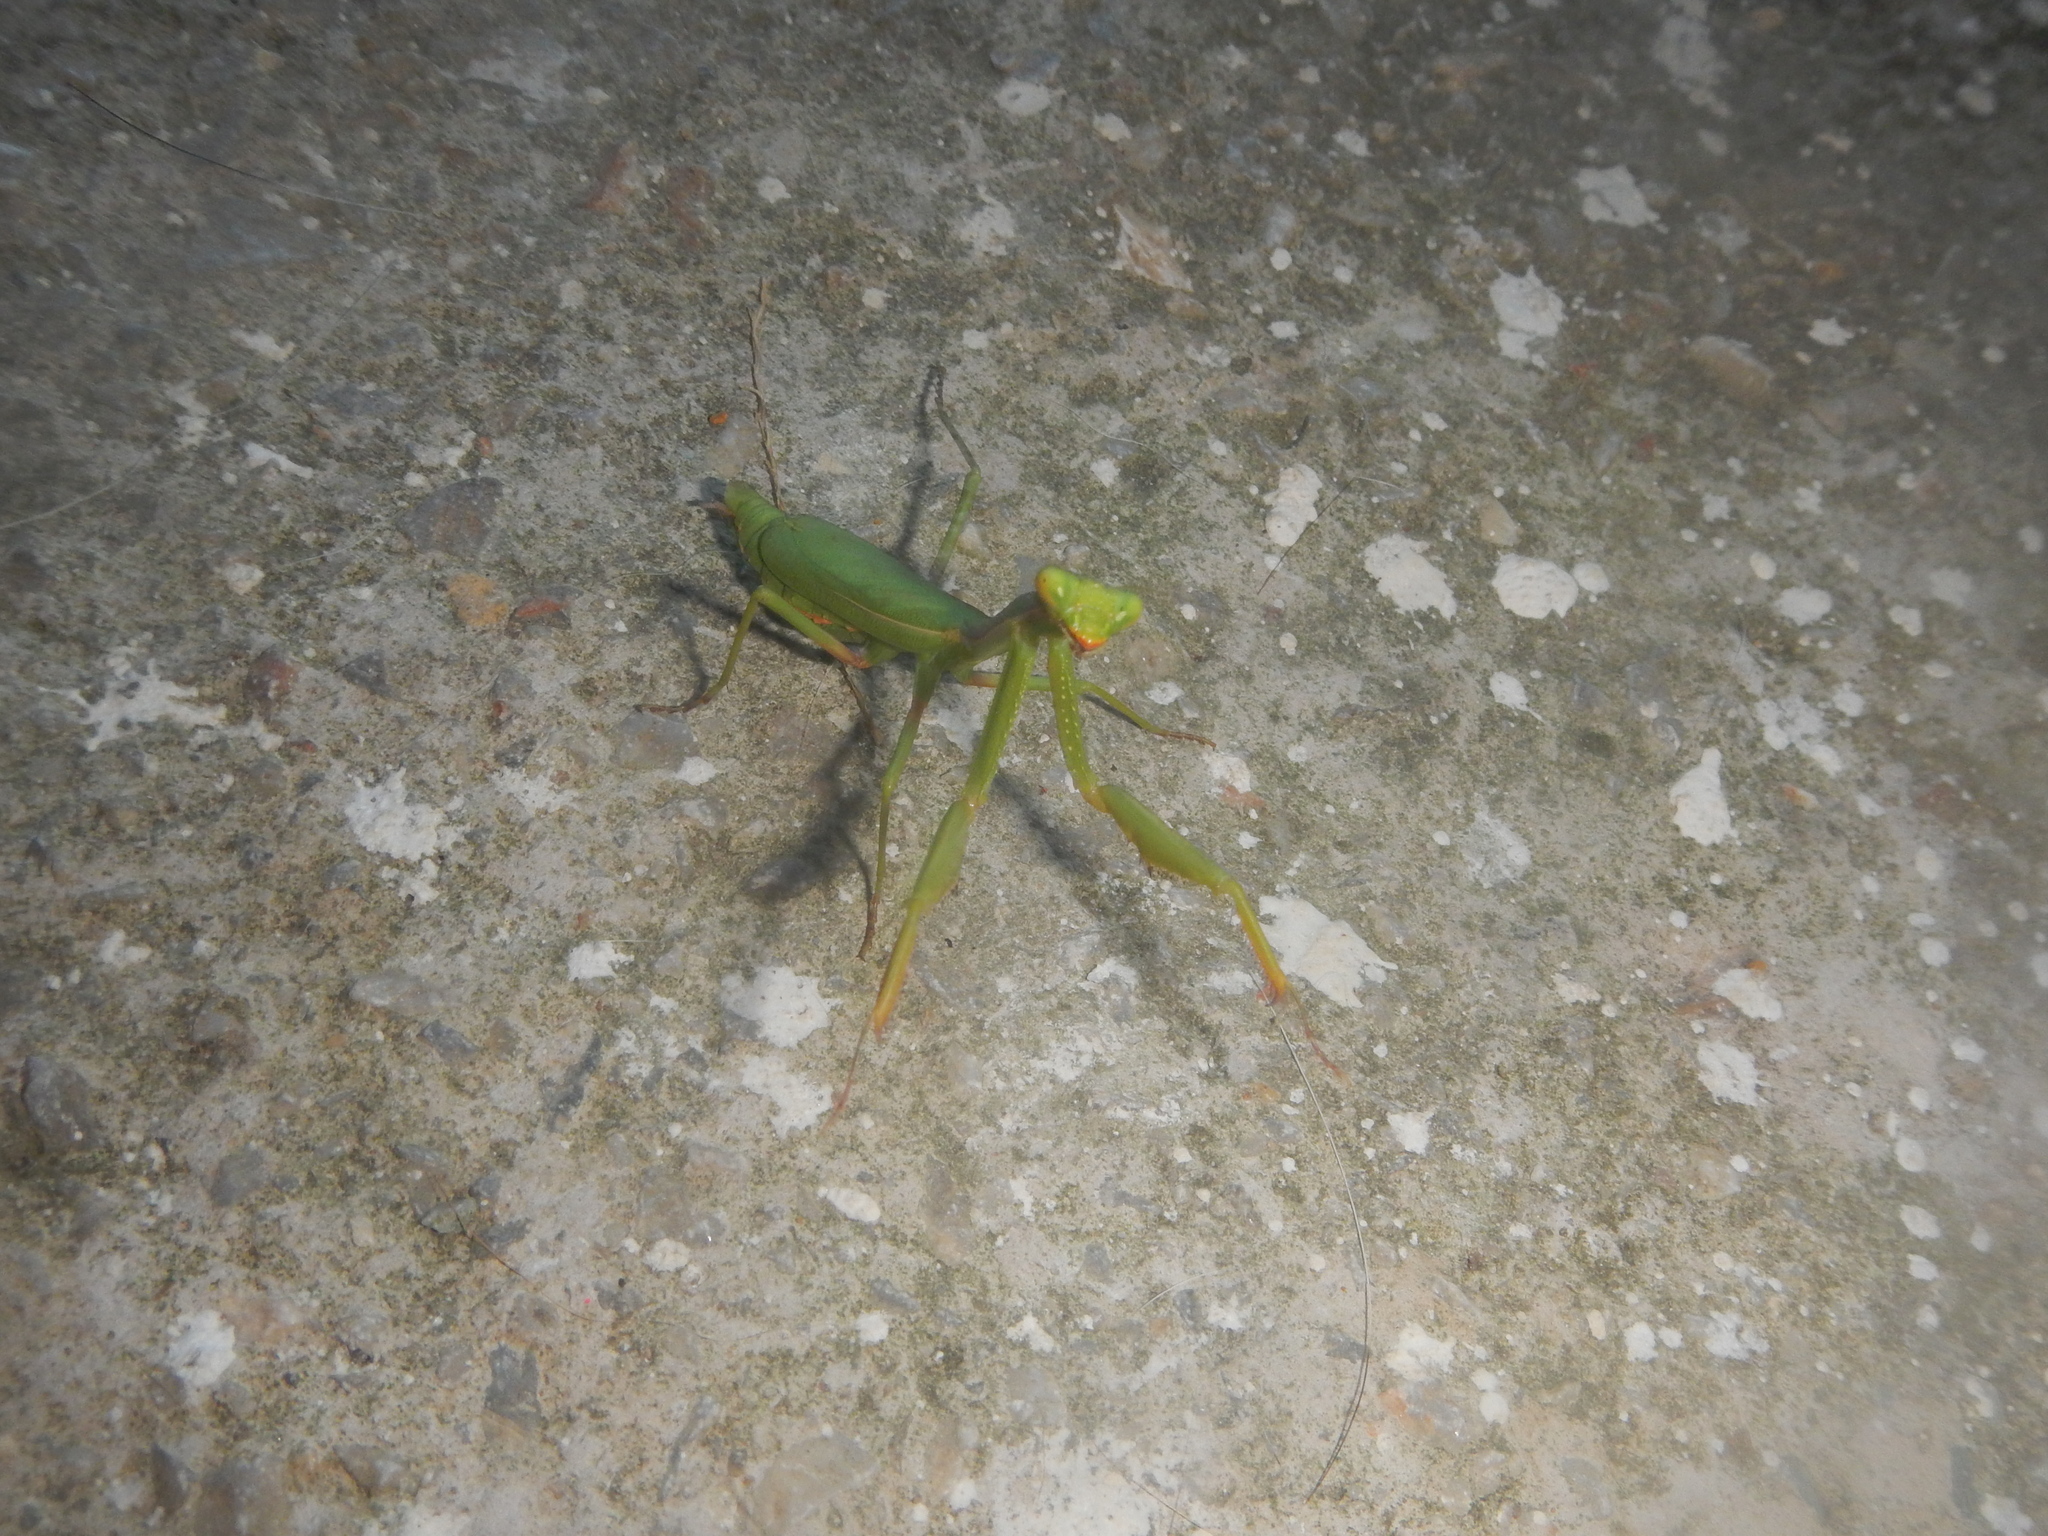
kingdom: Animalia
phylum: Arthropoda
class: Insecta
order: Mantodea
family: Eremiaphilidae
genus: Iris
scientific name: Iris oratoria
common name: Mediterranean mantis
